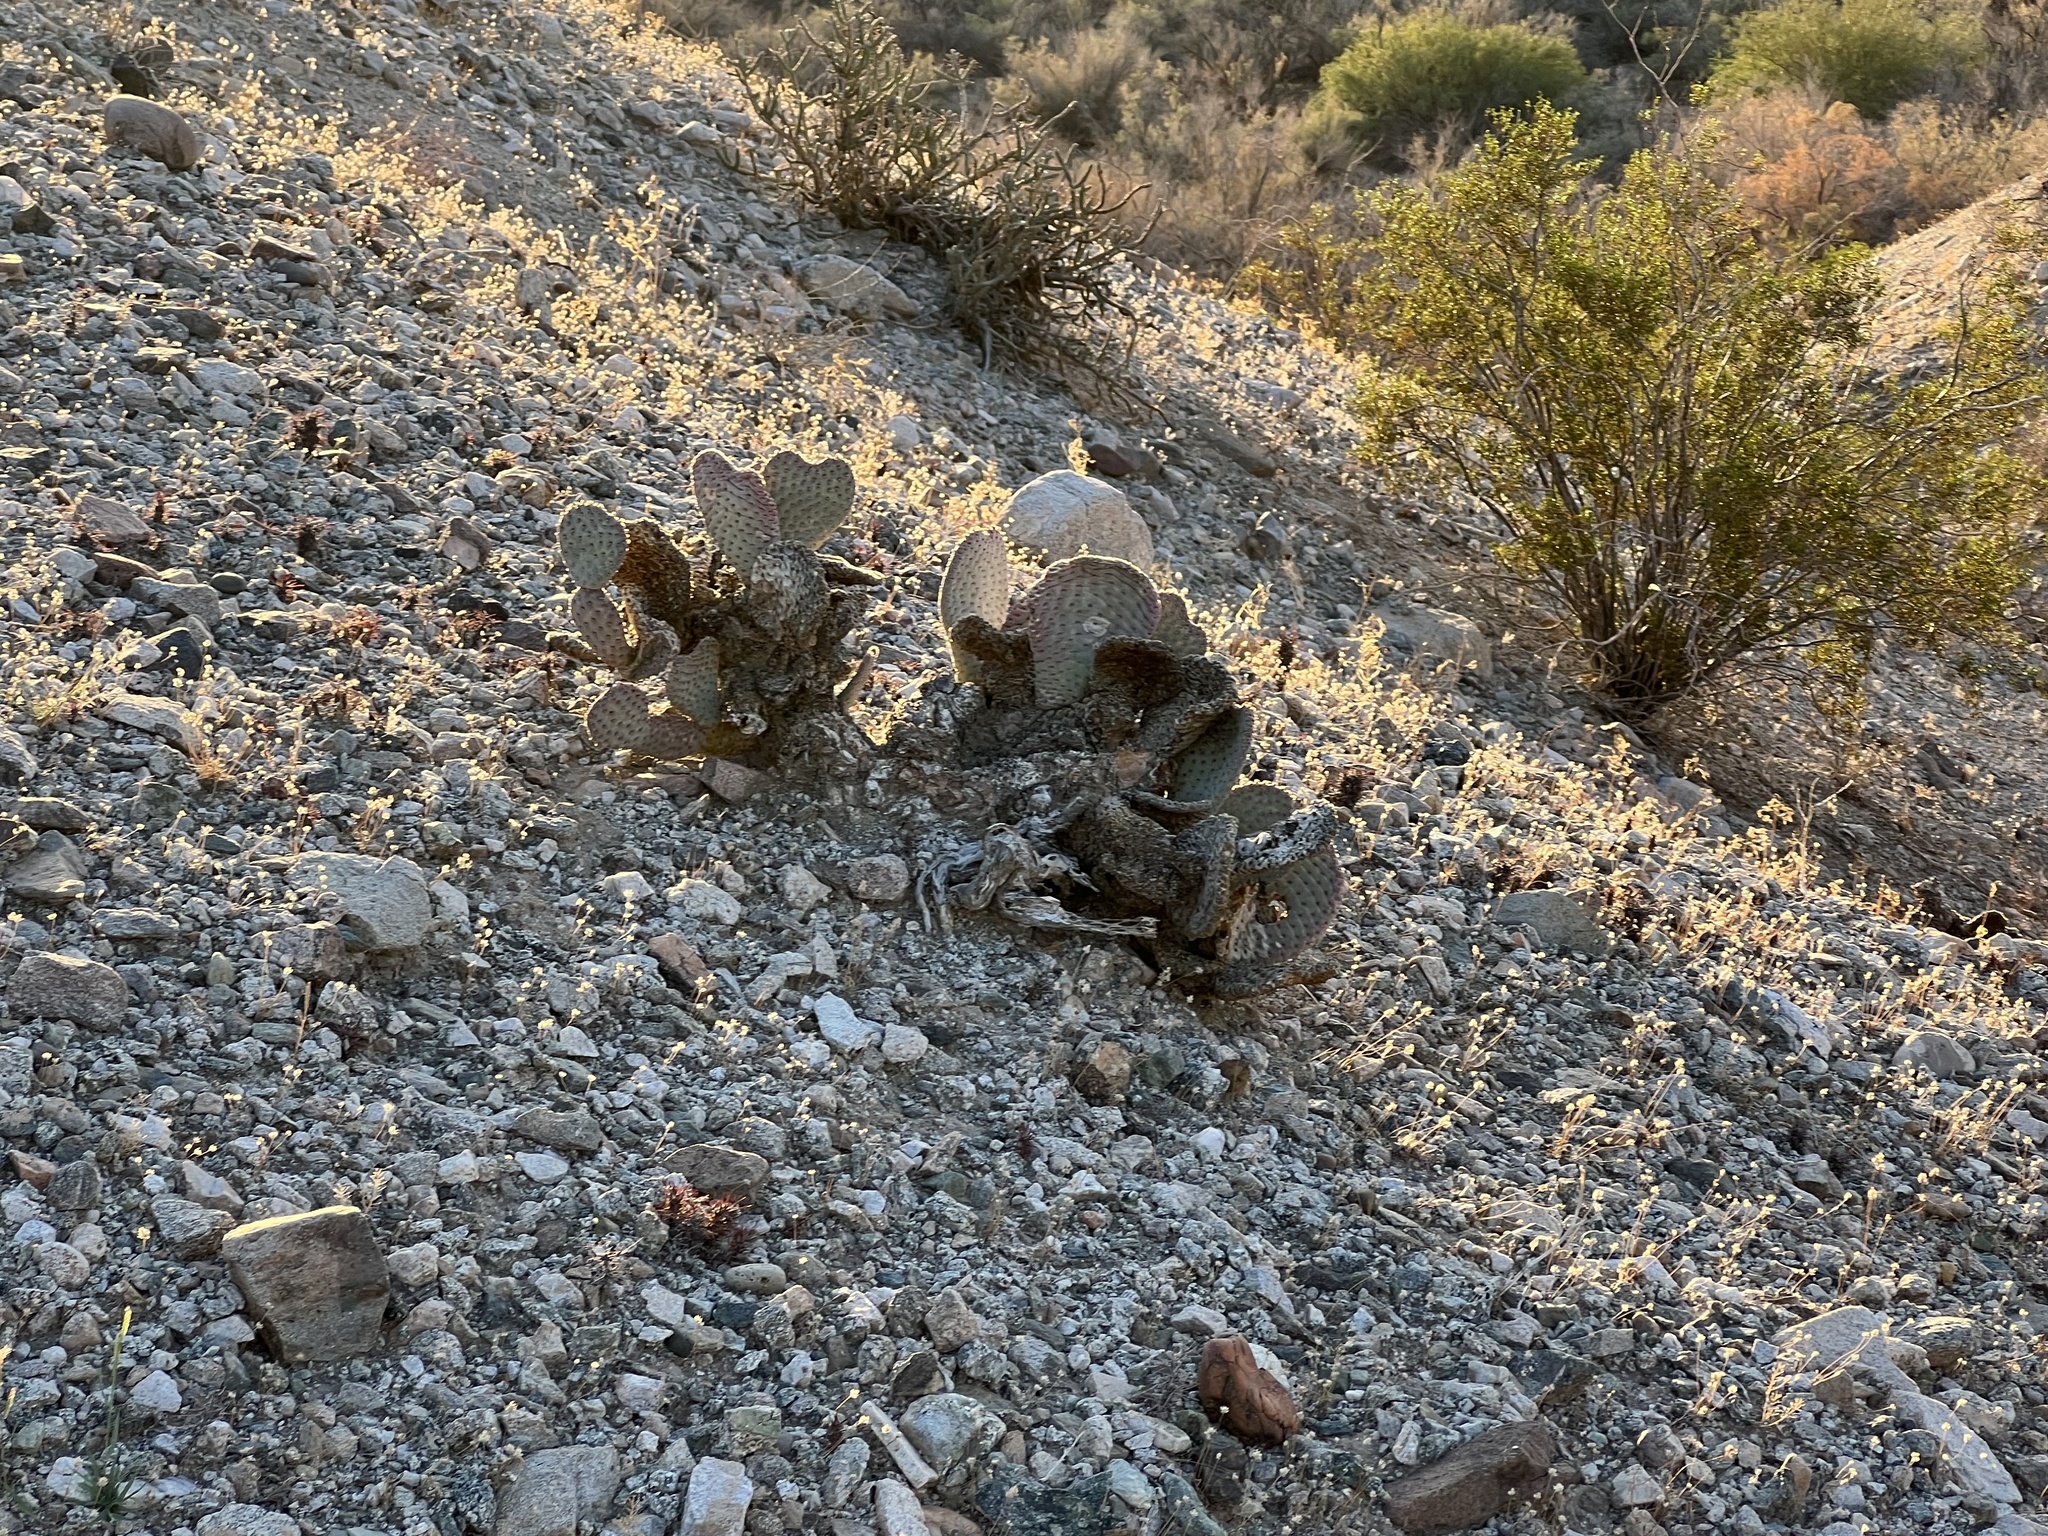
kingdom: Plantae
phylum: Tracheophyta
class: Magnoliopsida
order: Caryophyllales
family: Cactaceae
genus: Opuntia
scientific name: Opuntia basilaris
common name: Beavertail prickly-pear
